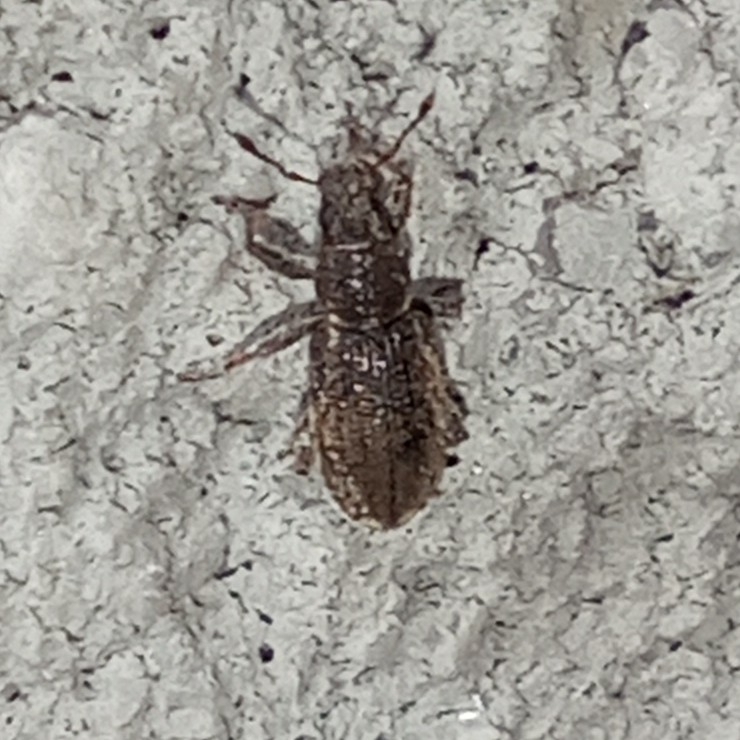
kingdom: Animalia
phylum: Arthropoda
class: Insecta
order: Coleoptera
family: Curculionidae
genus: Sitona
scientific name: Sitona humeralis
